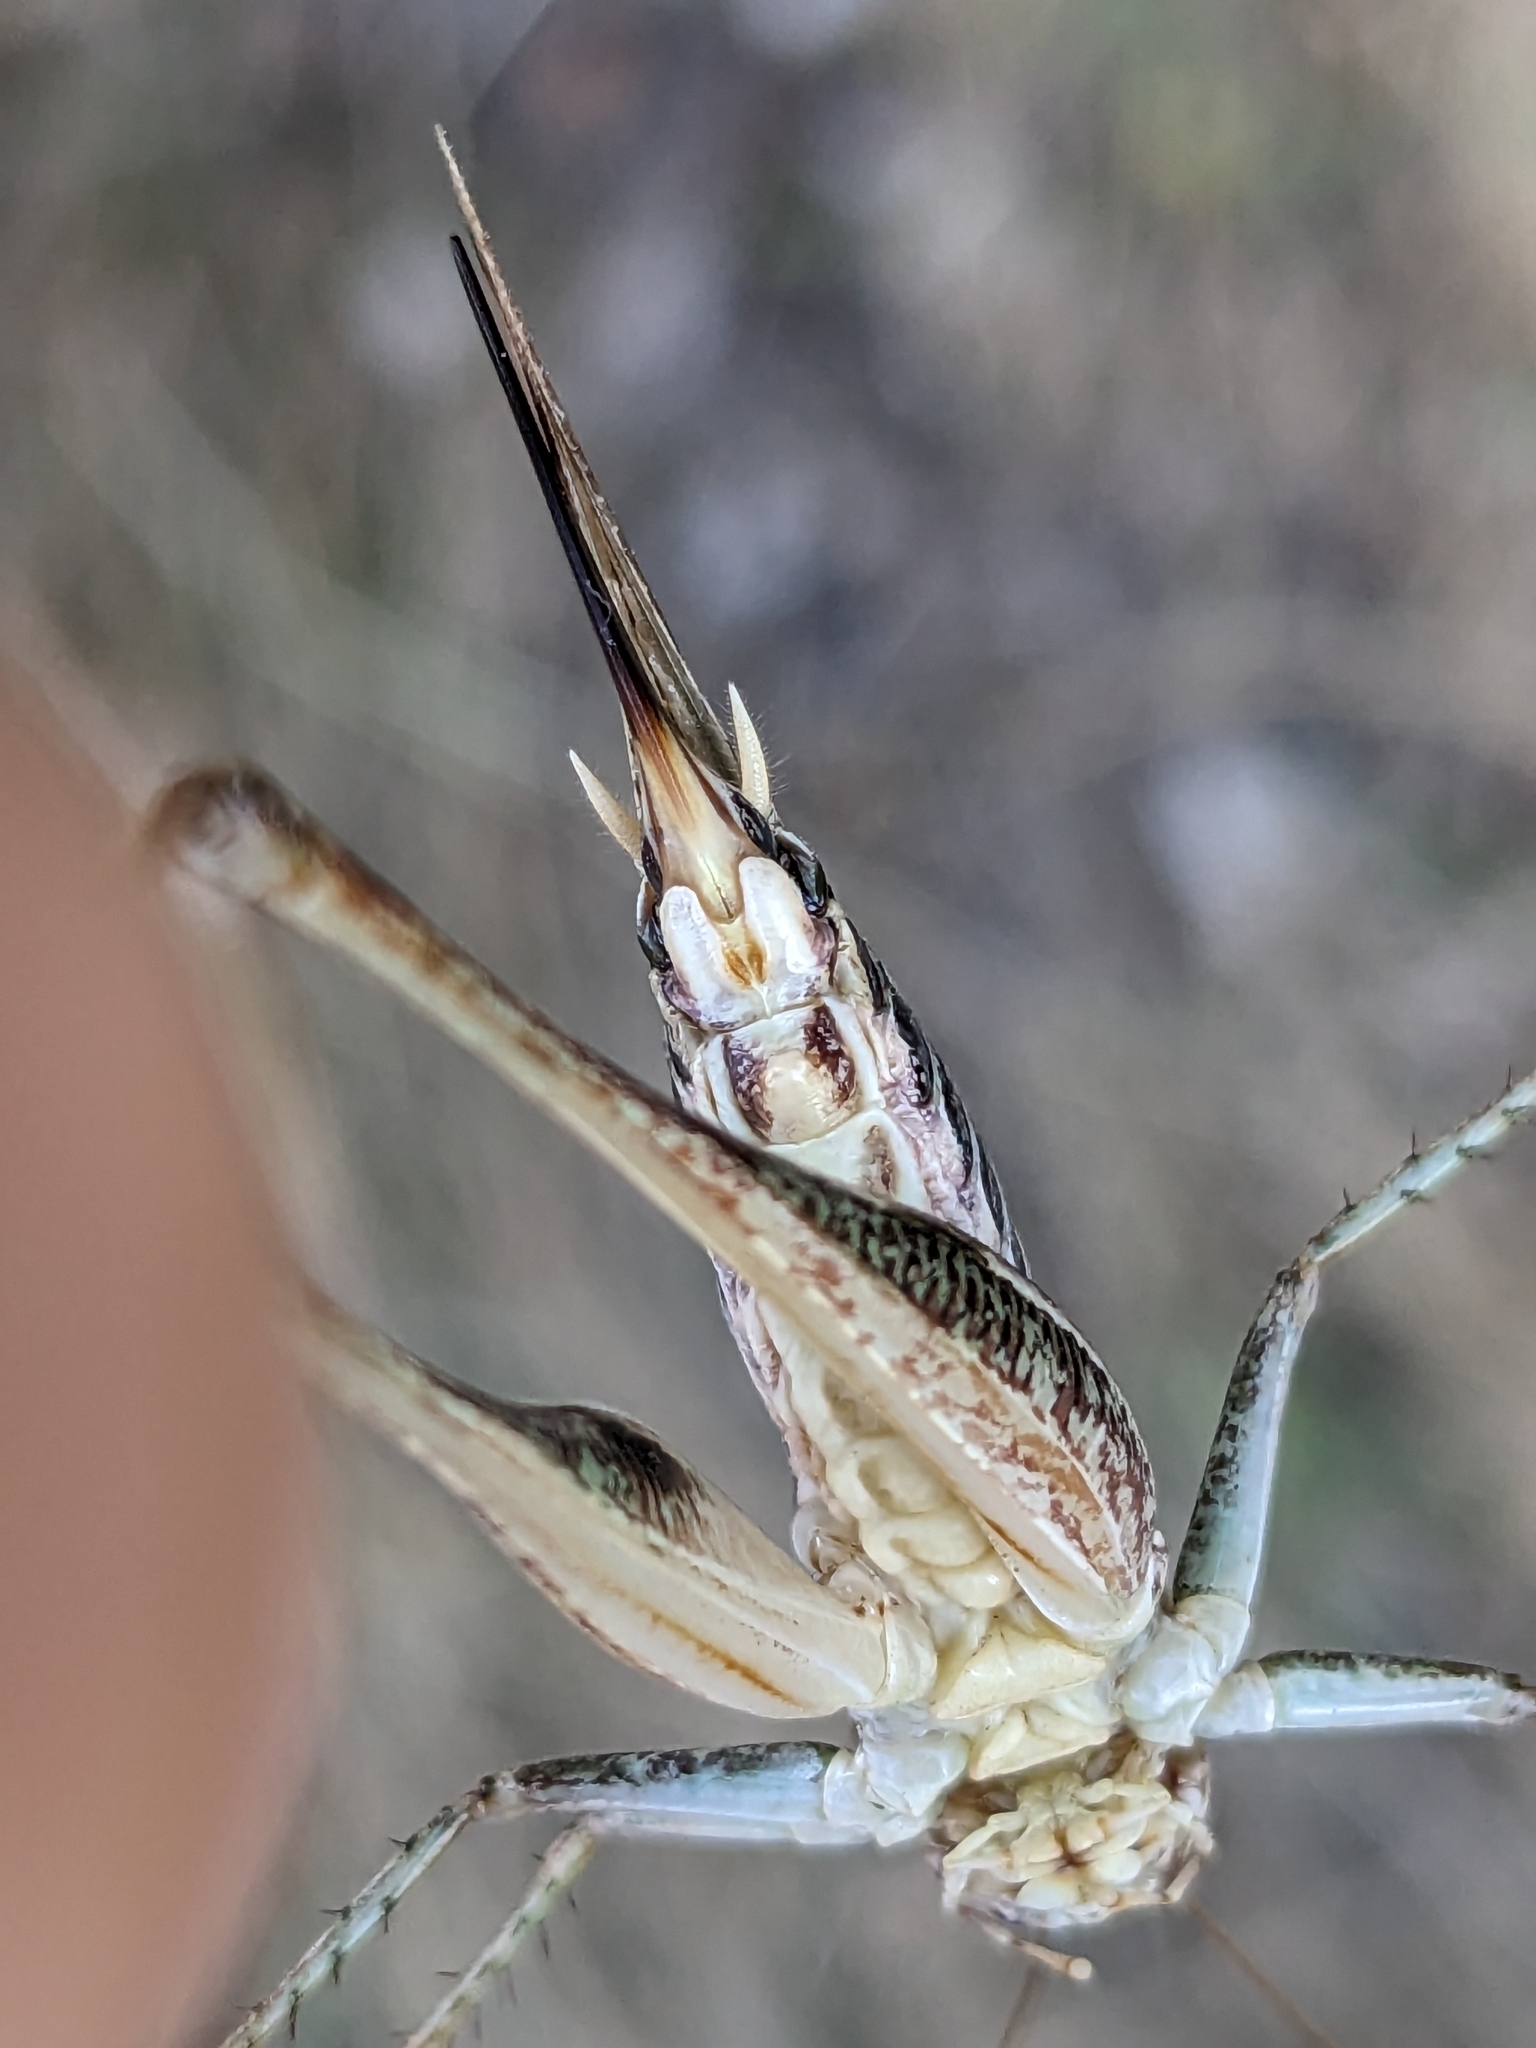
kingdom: Animalia
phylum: Arthropoda
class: Insecta
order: Orthoptera
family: Tettigoniidae
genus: Platycleis
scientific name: Platycleis affinis
